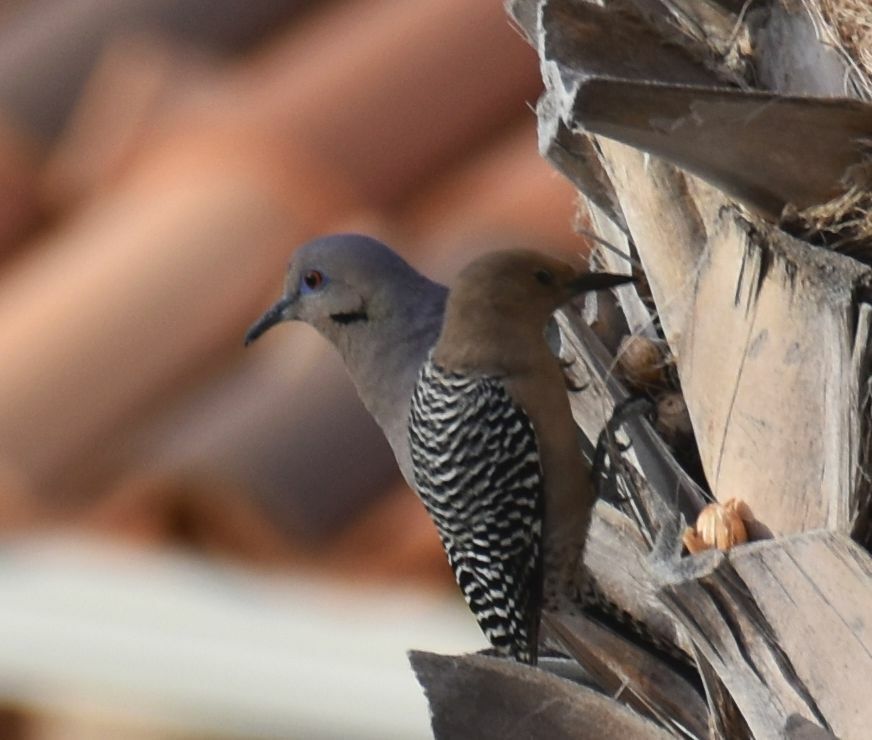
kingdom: Animalia
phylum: Chordata
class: Aves
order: Columbiformes
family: Columbidae
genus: Zenaida
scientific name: Zenaida asiatica
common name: White-winged dove
